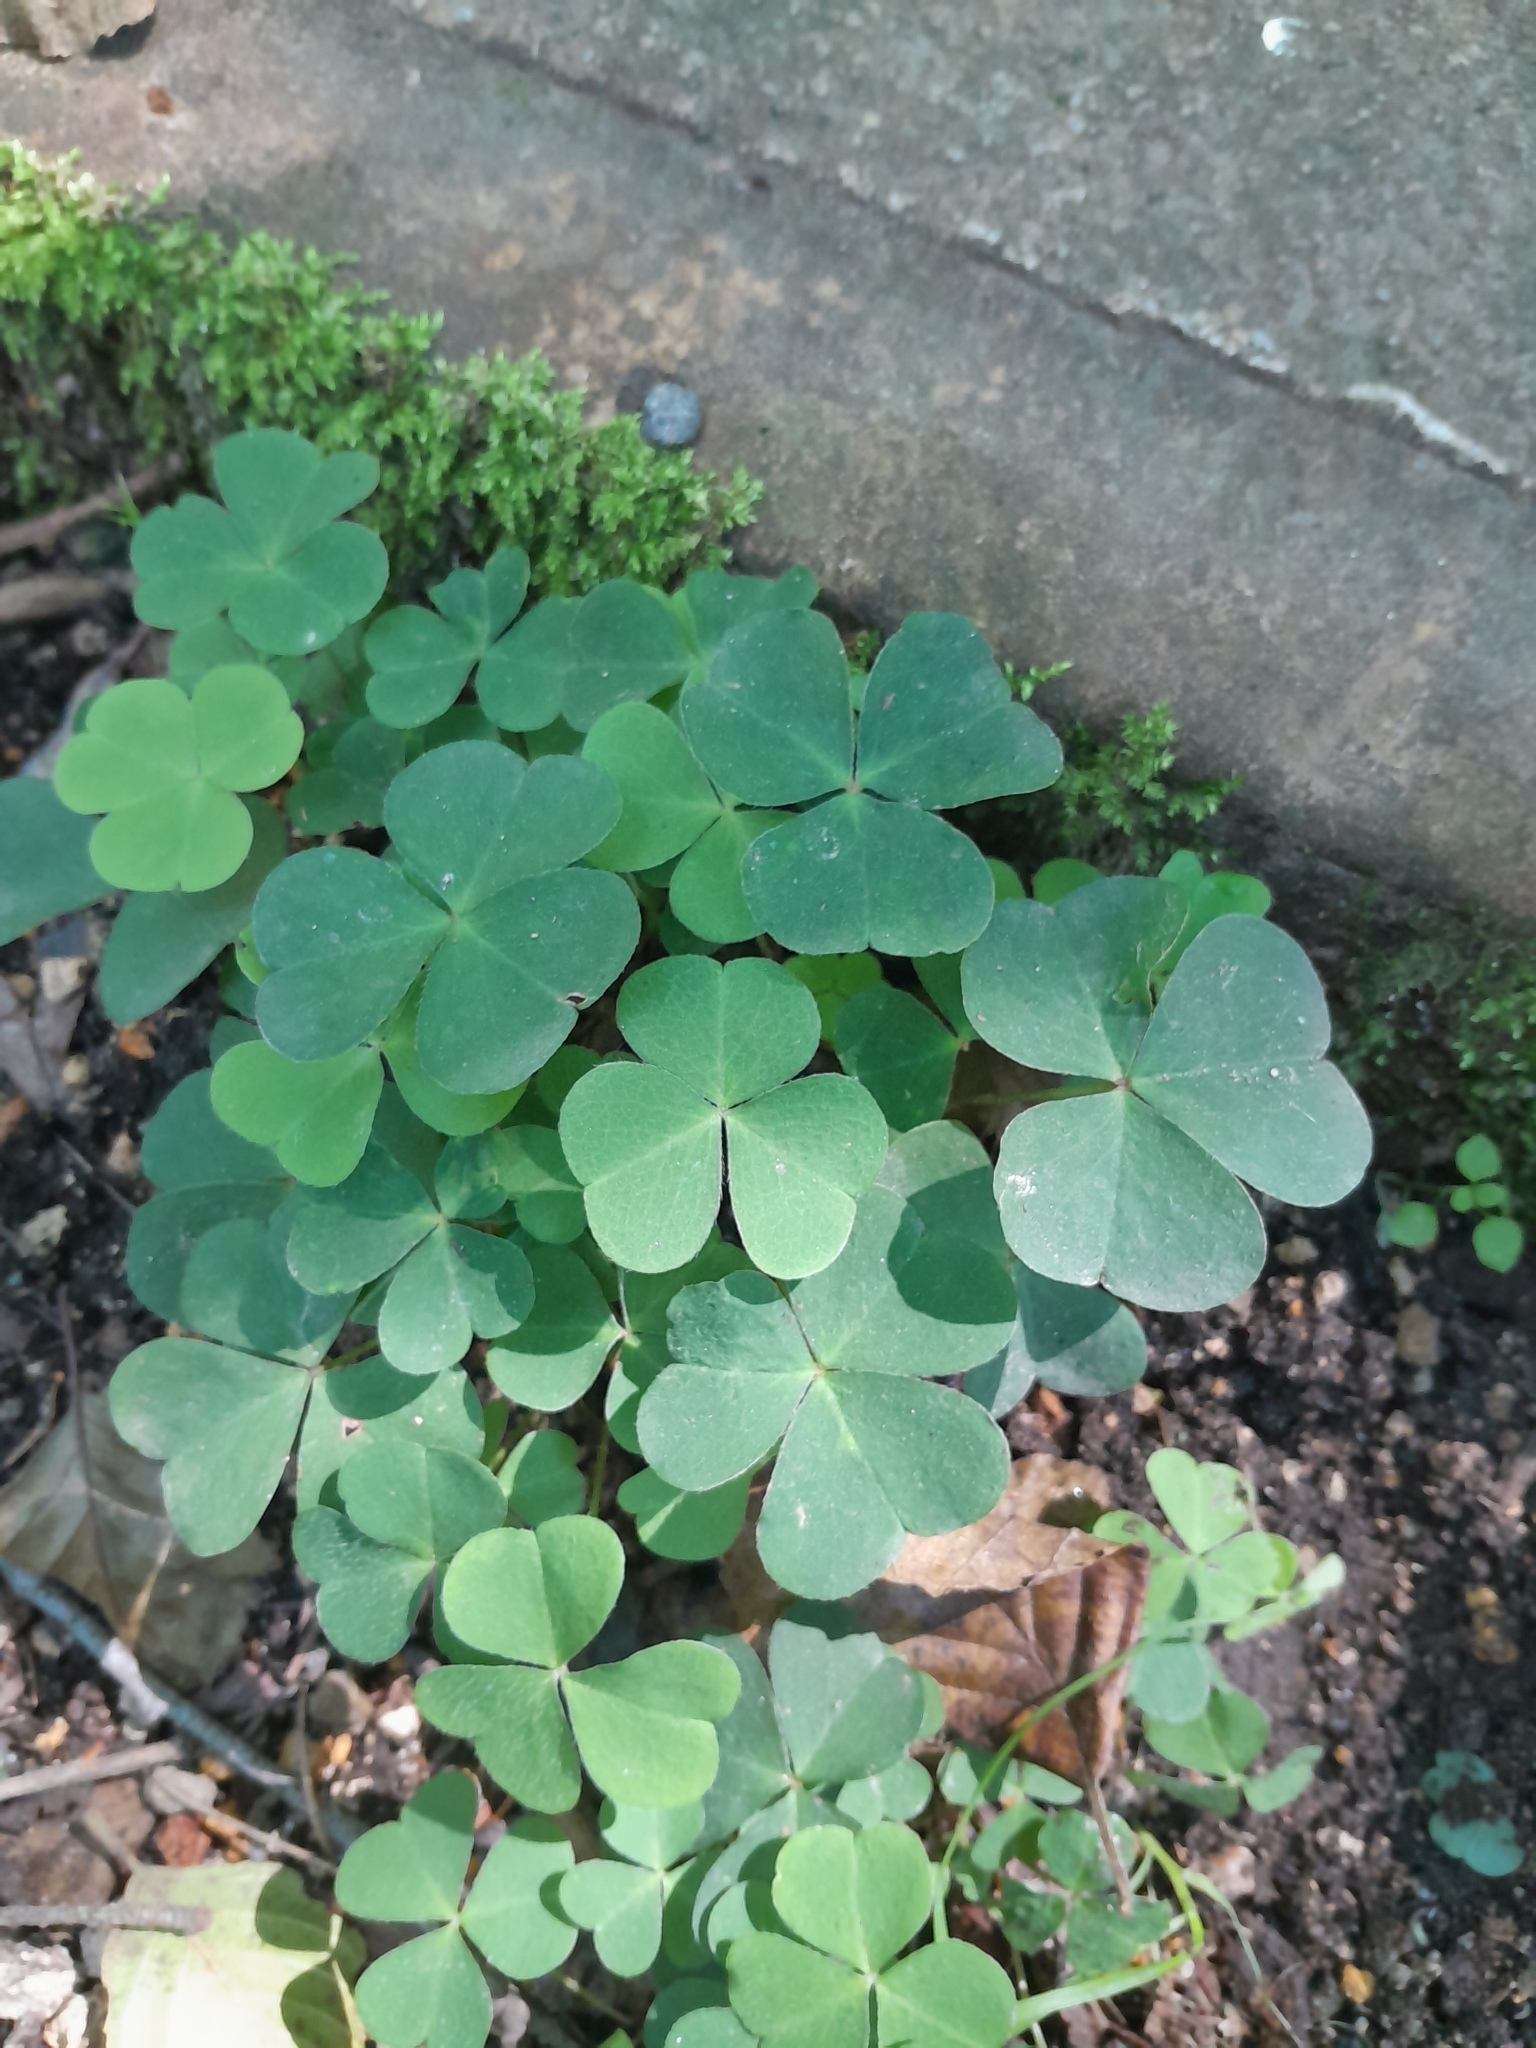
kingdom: Plantae
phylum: Tracheophyta
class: Magnoliopsida
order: Oxalidales
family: Oxalidaceae
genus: Oxalis
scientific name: Oxalis acetosella
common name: Wood-sorrel
